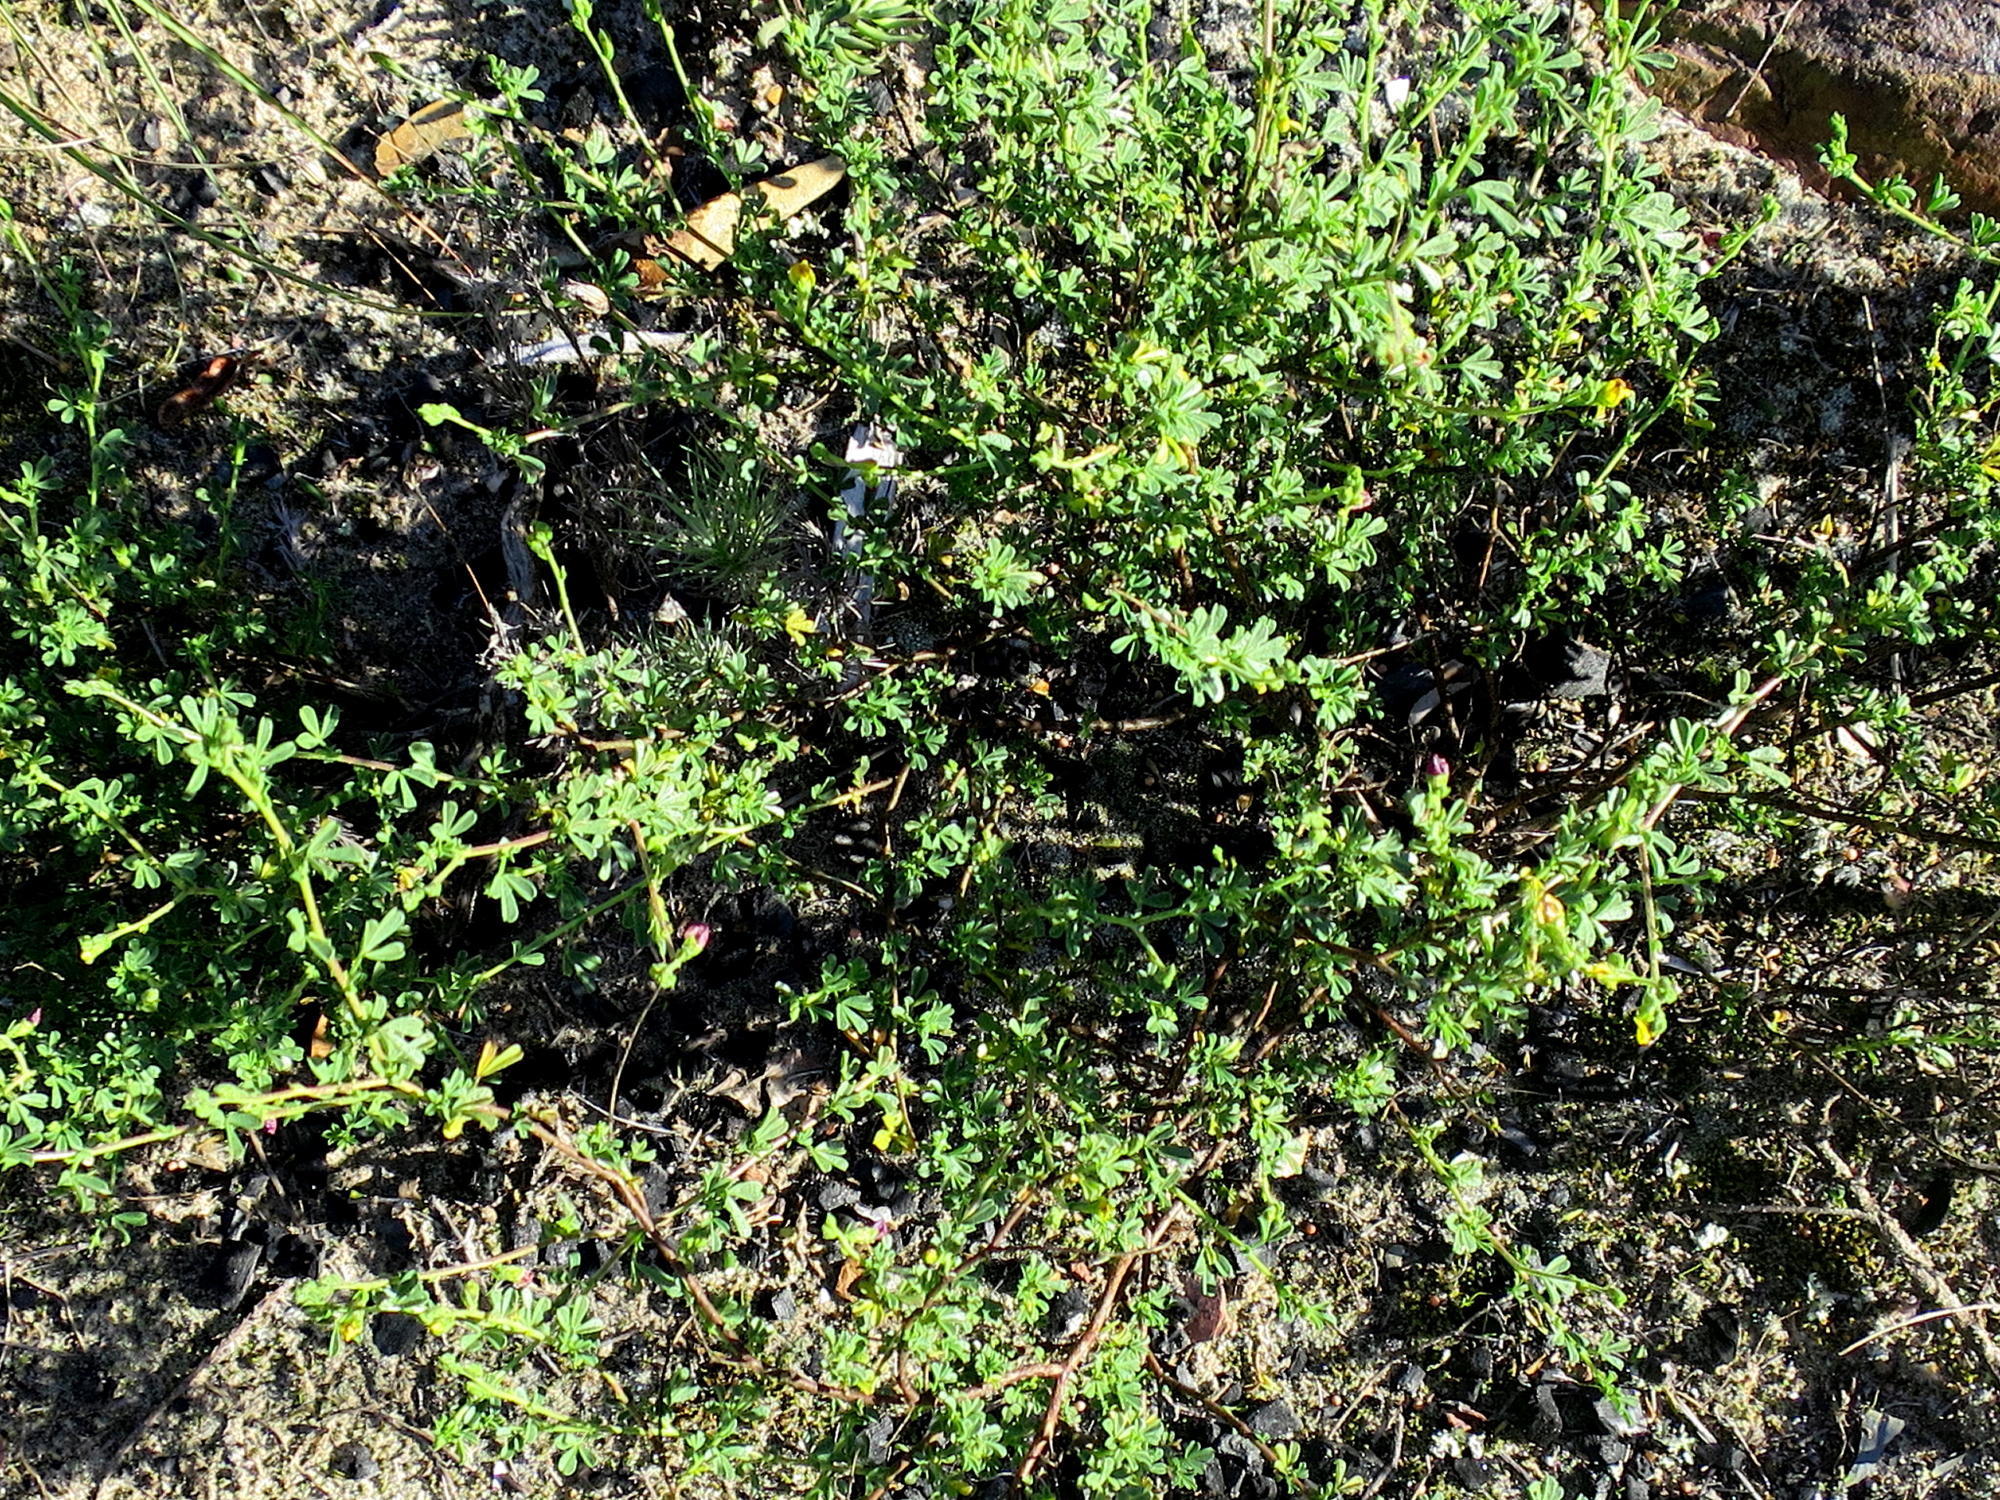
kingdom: Plantae
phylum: Tracheophyta
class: Magnoliopsida
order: Fabales
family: Fabaceae
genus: Melolobium
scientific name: Melolobium adenodes
